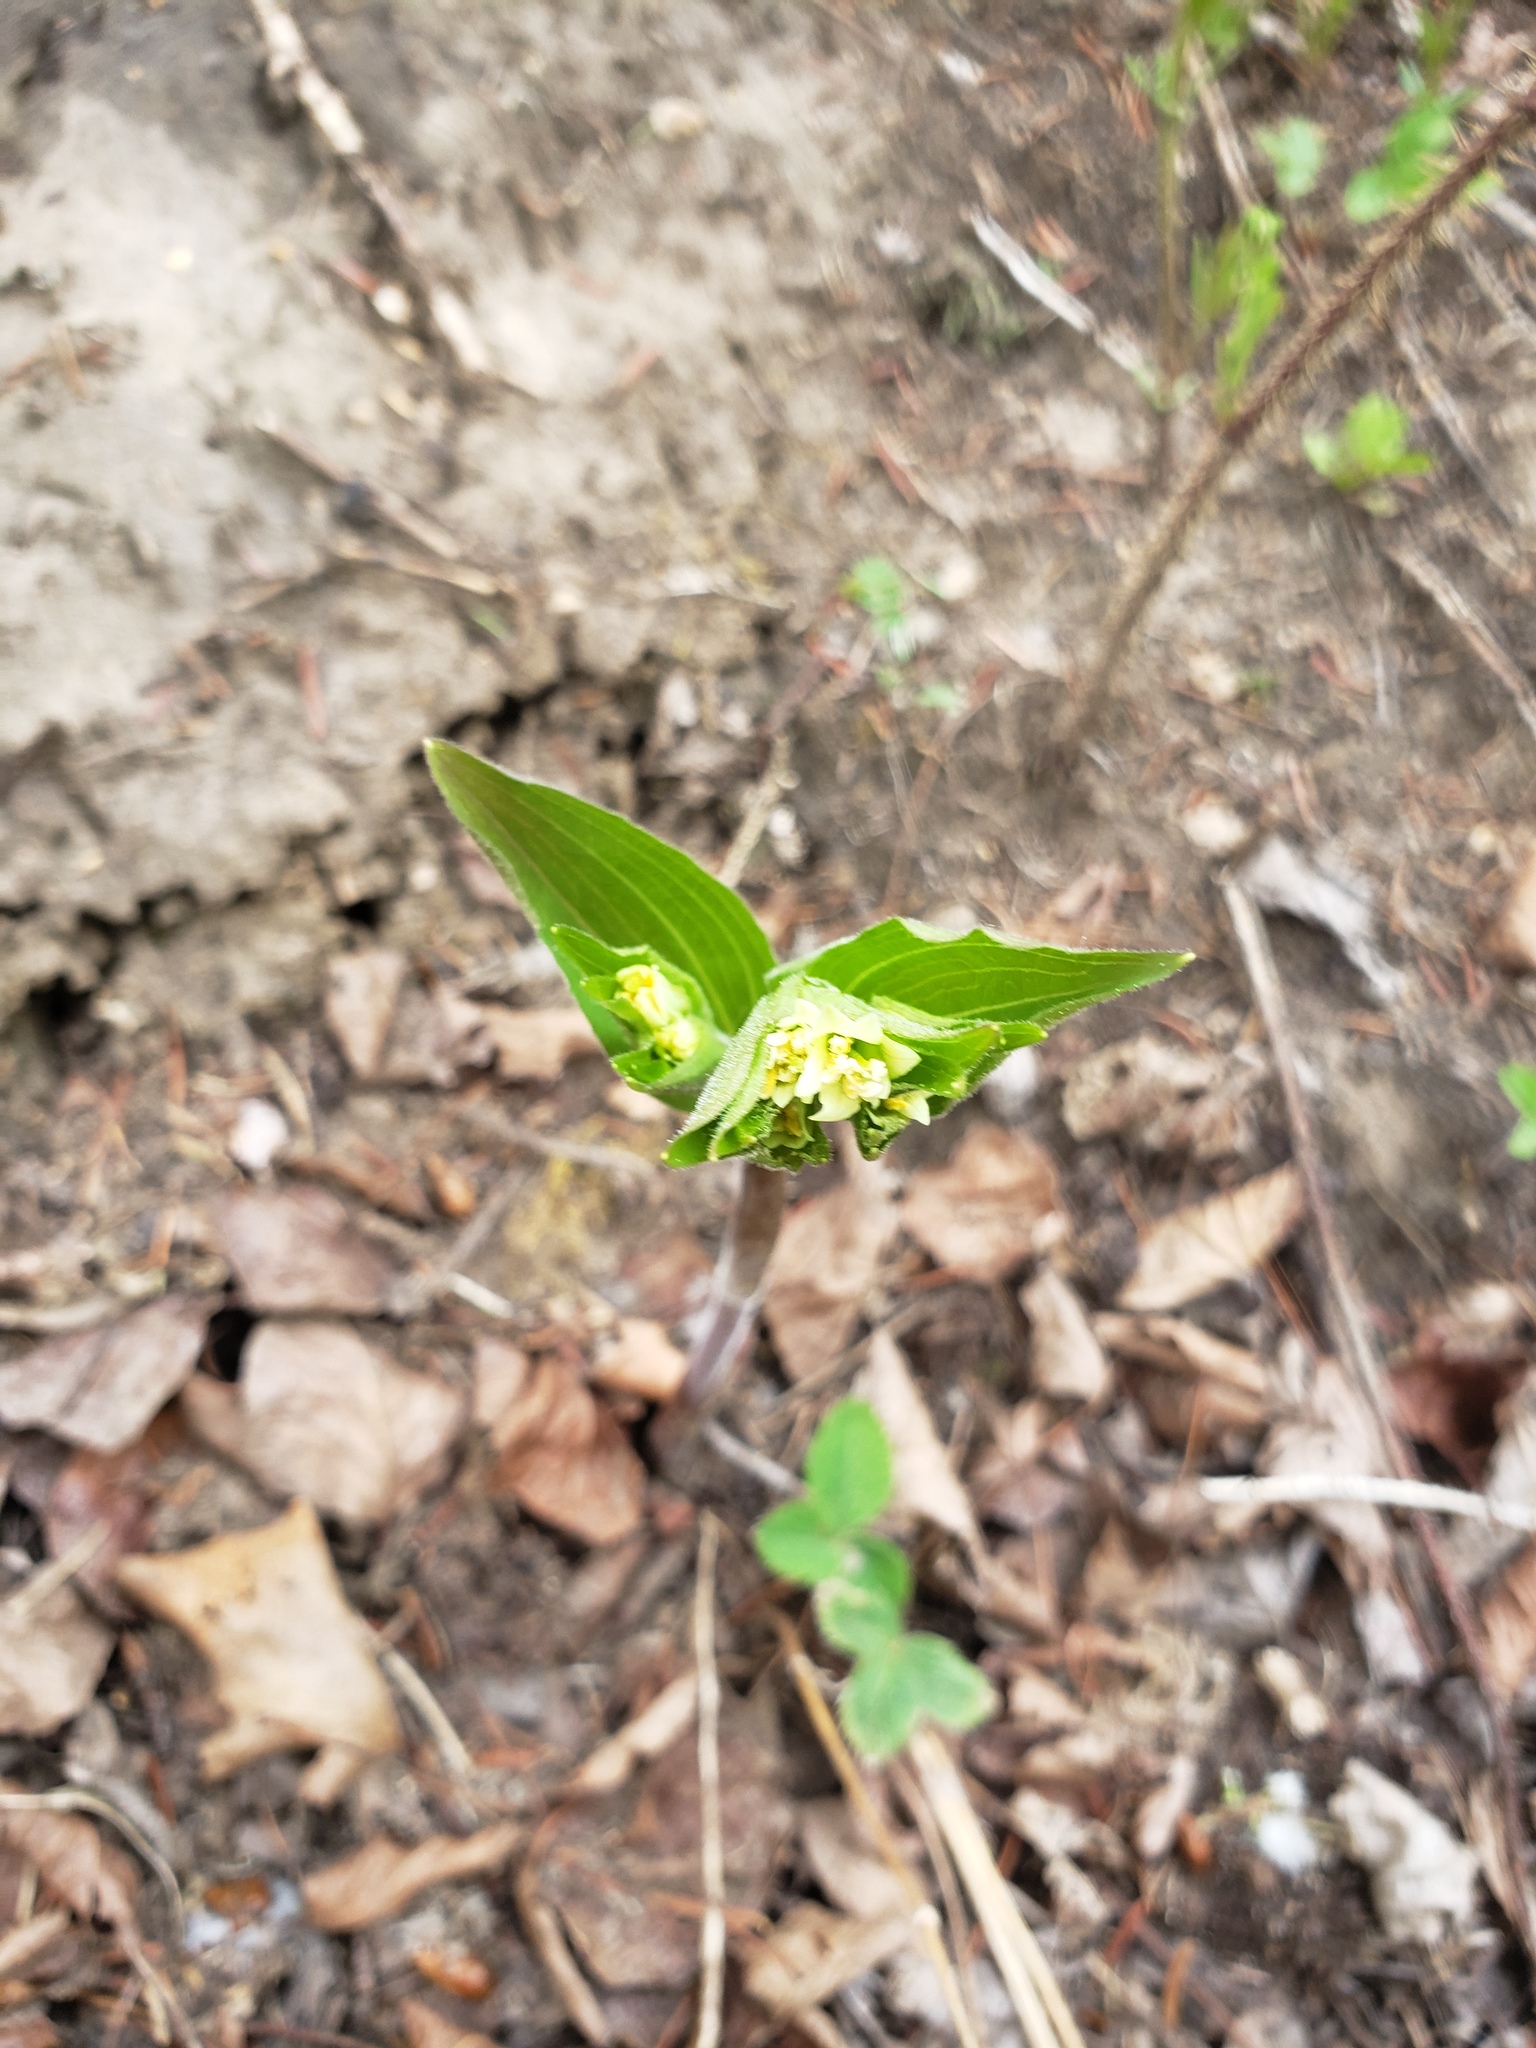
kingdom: Plantae
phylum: Tracheophyta
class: Liliopsida
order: Liliales
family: Liliaceae
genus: Prosartes
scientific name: Prosartes trachycarpa
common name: Rough-fruit fairy-bells
